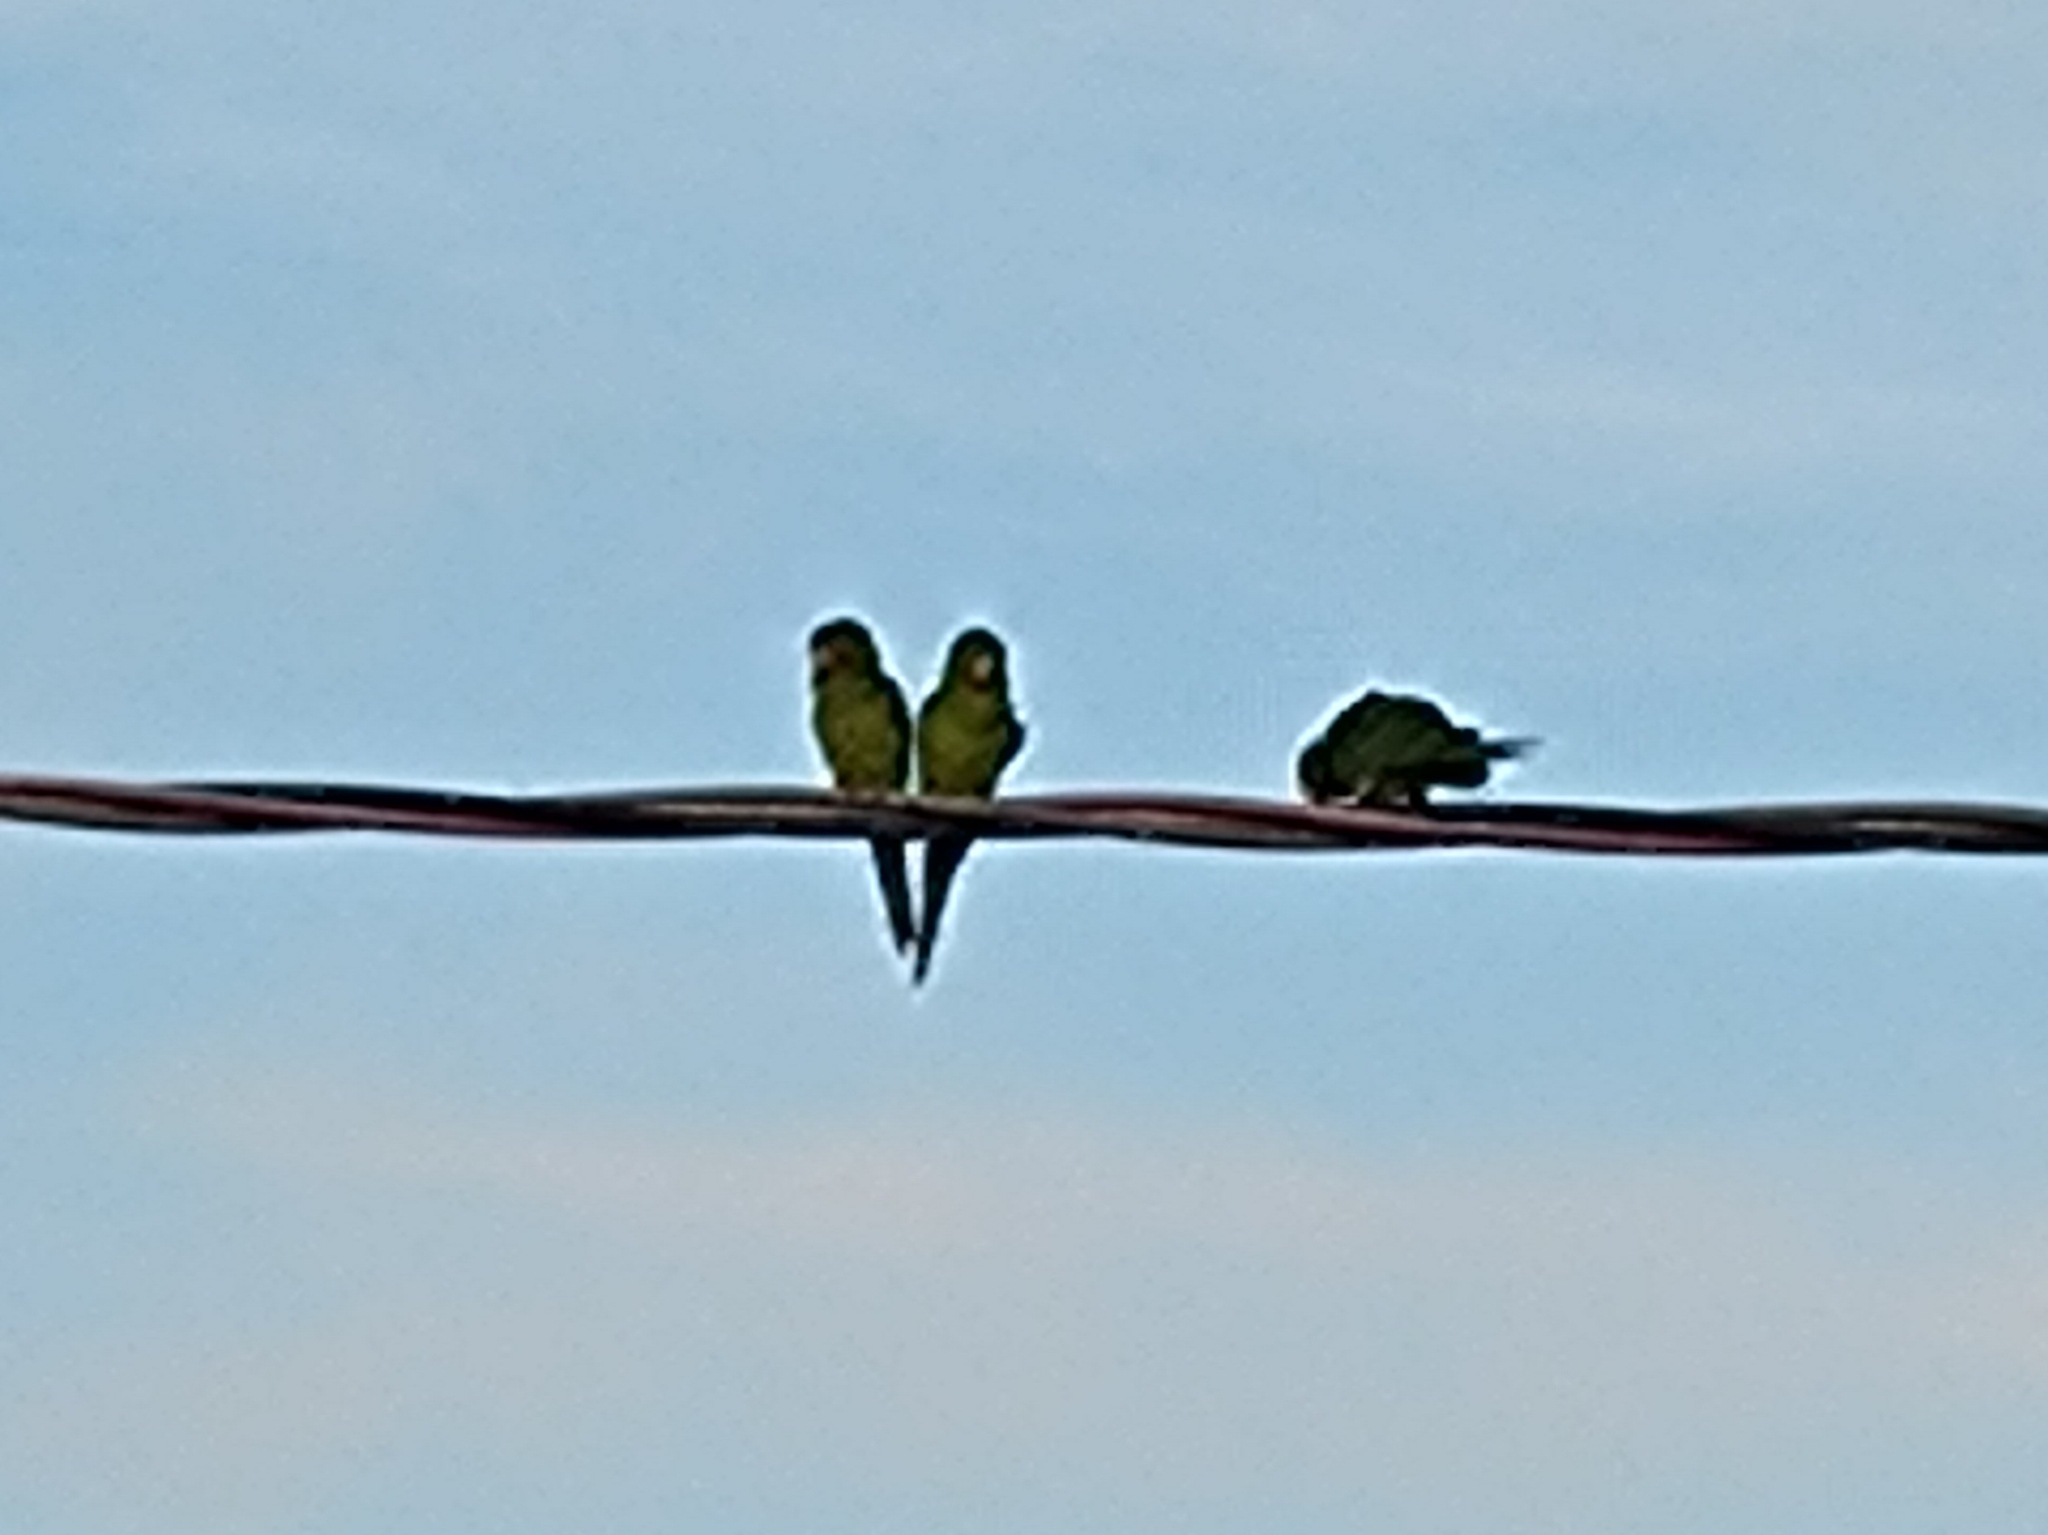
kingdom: Animalia
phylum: Chordata
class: Aves
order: Psittaciformes
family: Psittacidae
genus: Aratinga
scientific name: Aratinga leucophthalma
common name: White-eyed parakeet
